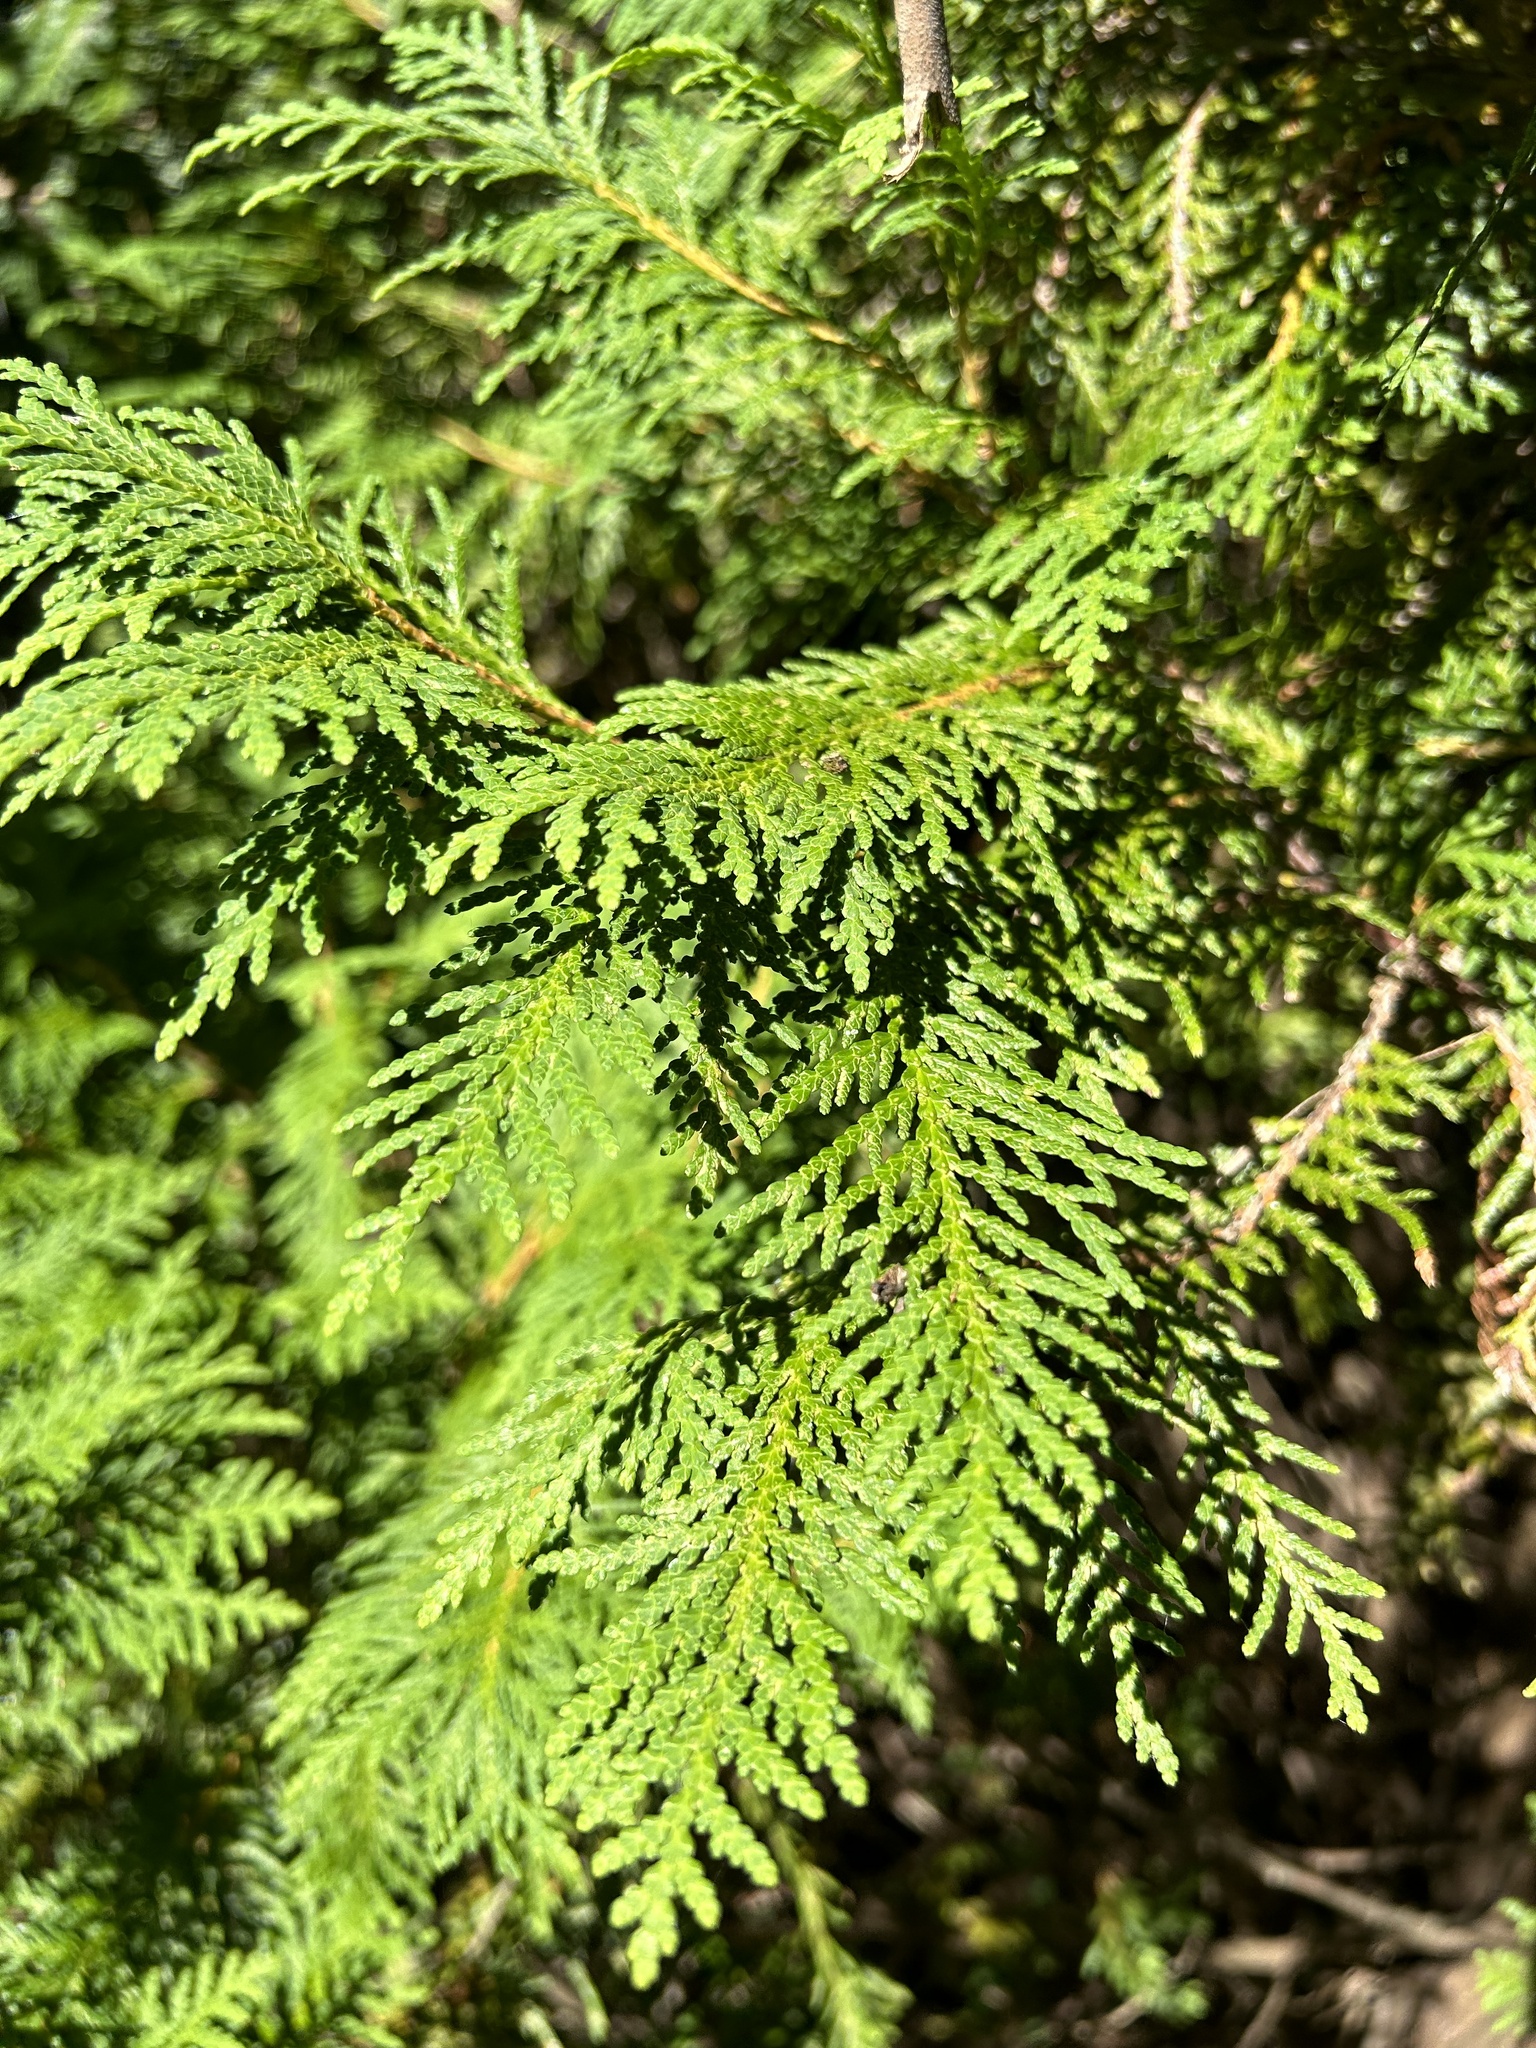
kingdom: Plantae
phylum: Tracheophyta
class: Pinopsida
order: Pinales
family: Cupressaceae
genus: Thuja
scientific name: Thuja occidentalis
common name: Northern white-cedar
